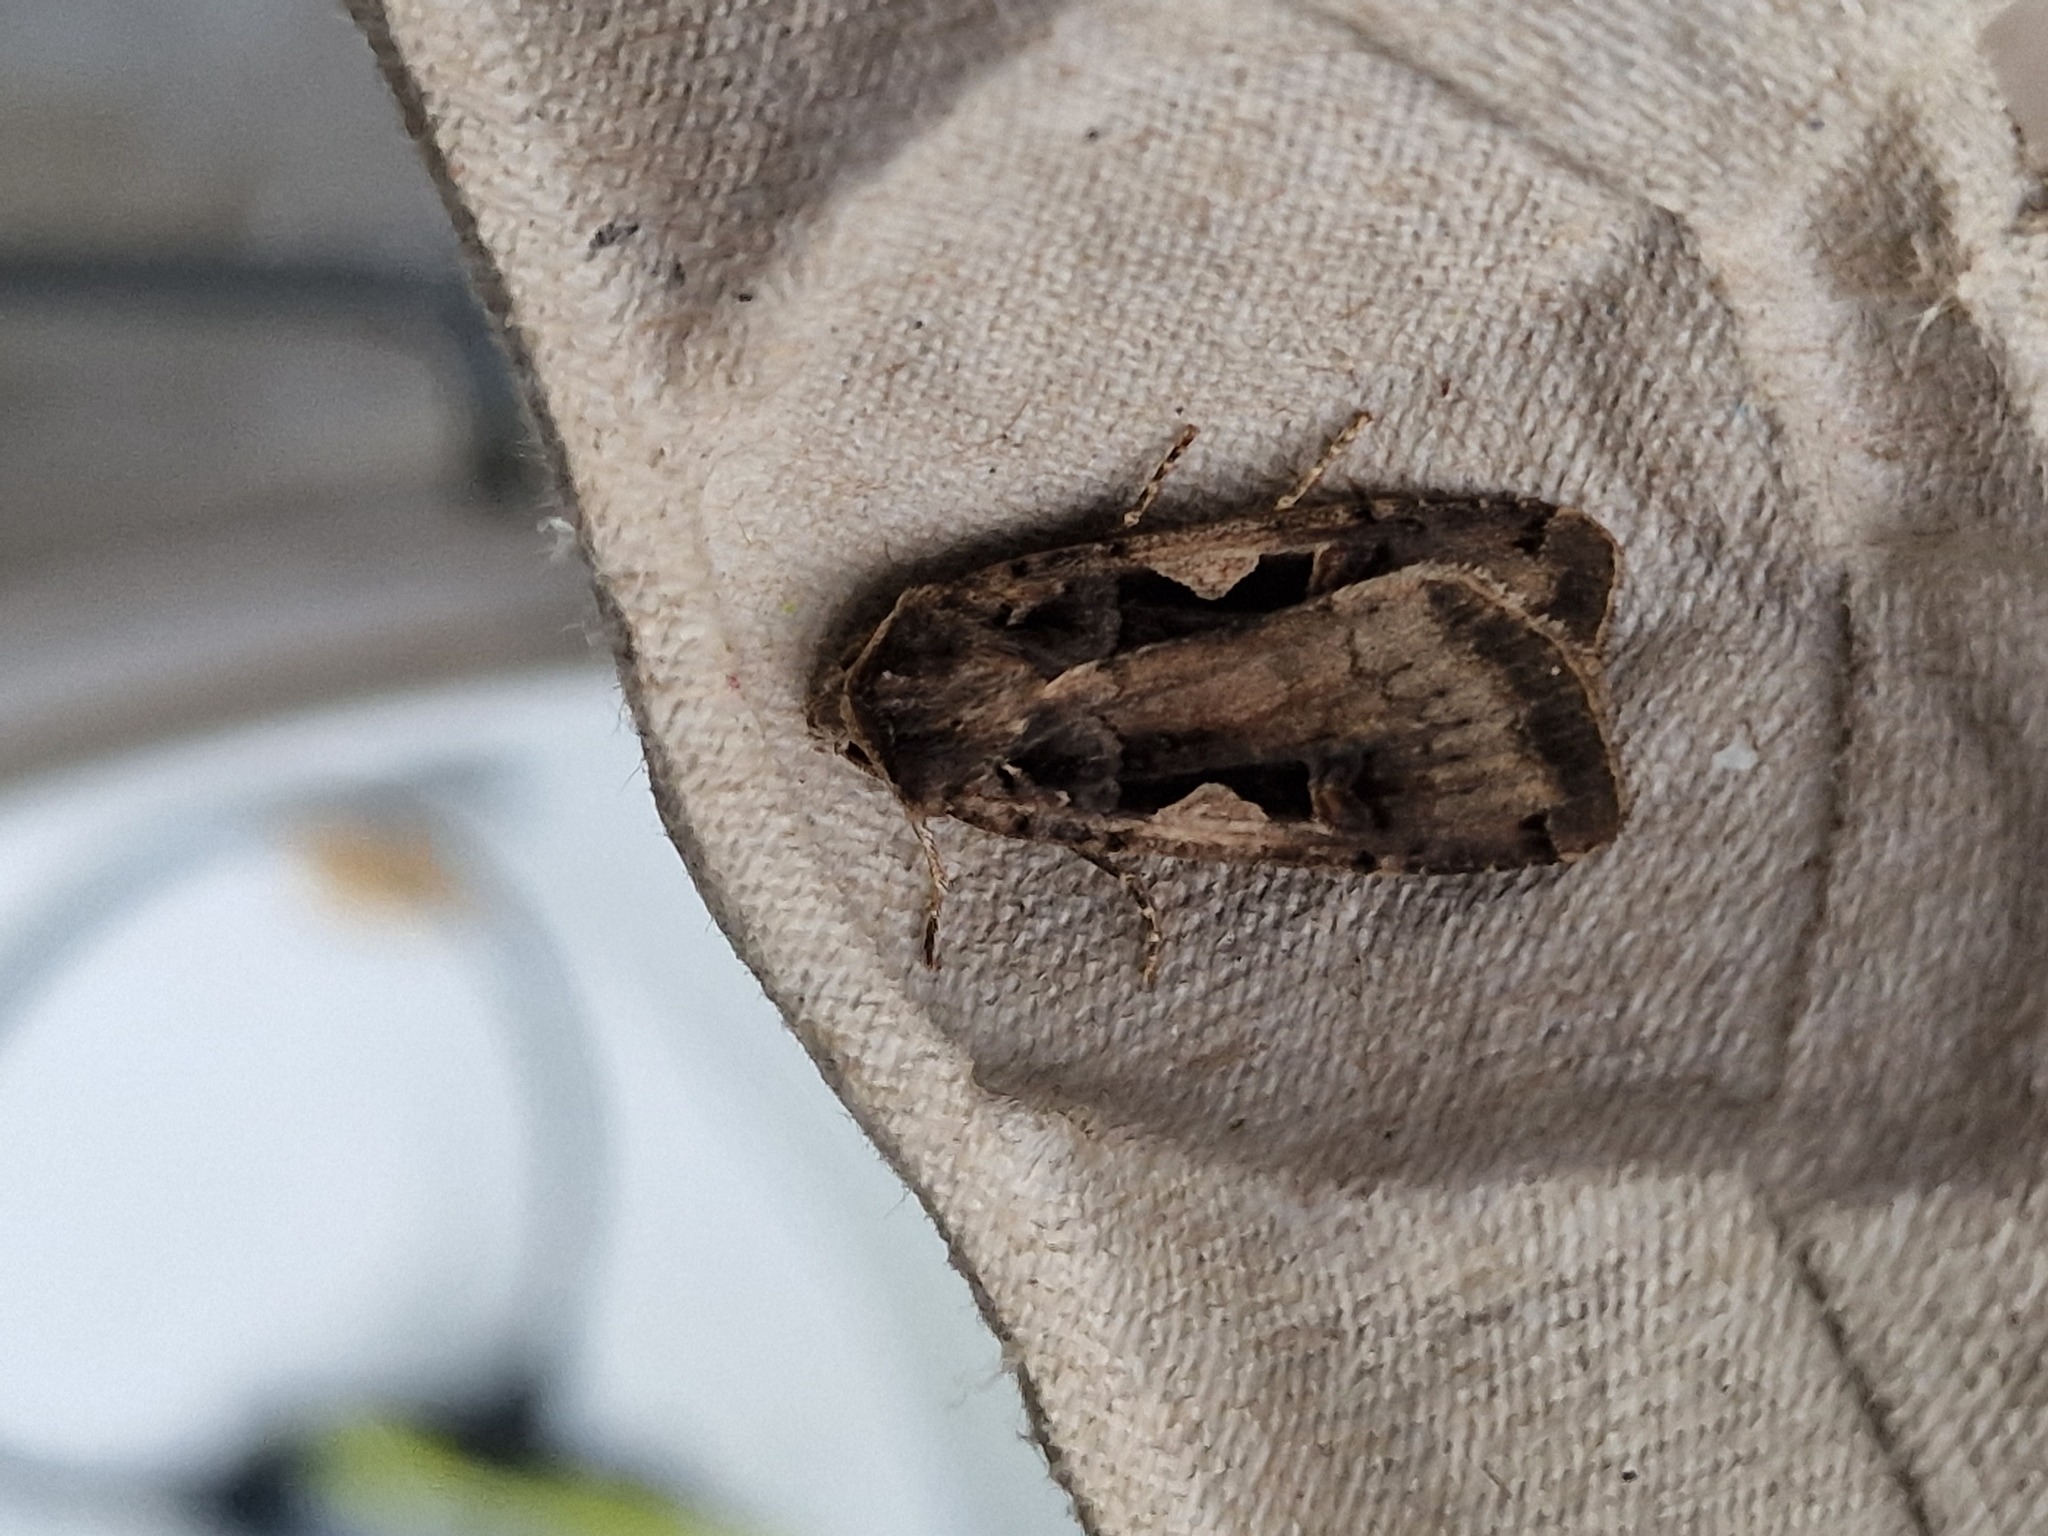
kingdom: Animalia
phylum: Arthropoda
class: Insecta
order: Lepidoptera
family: Noctuidae
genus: Xestia
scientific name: Xestia c-nigrum
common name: Setaceous hebrew character
